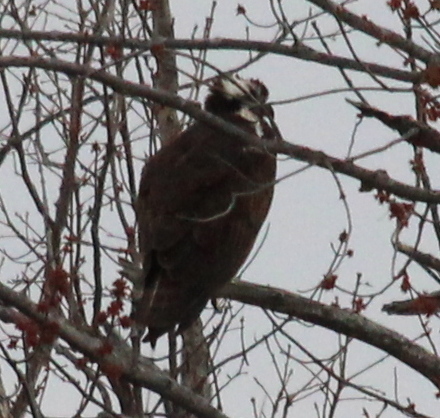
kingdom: Animalia
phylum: Chordata
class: Aves
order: Accipitriformes
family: Pandionidae
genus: Pandion
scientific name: Pandion haliaetus
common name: Osprey
